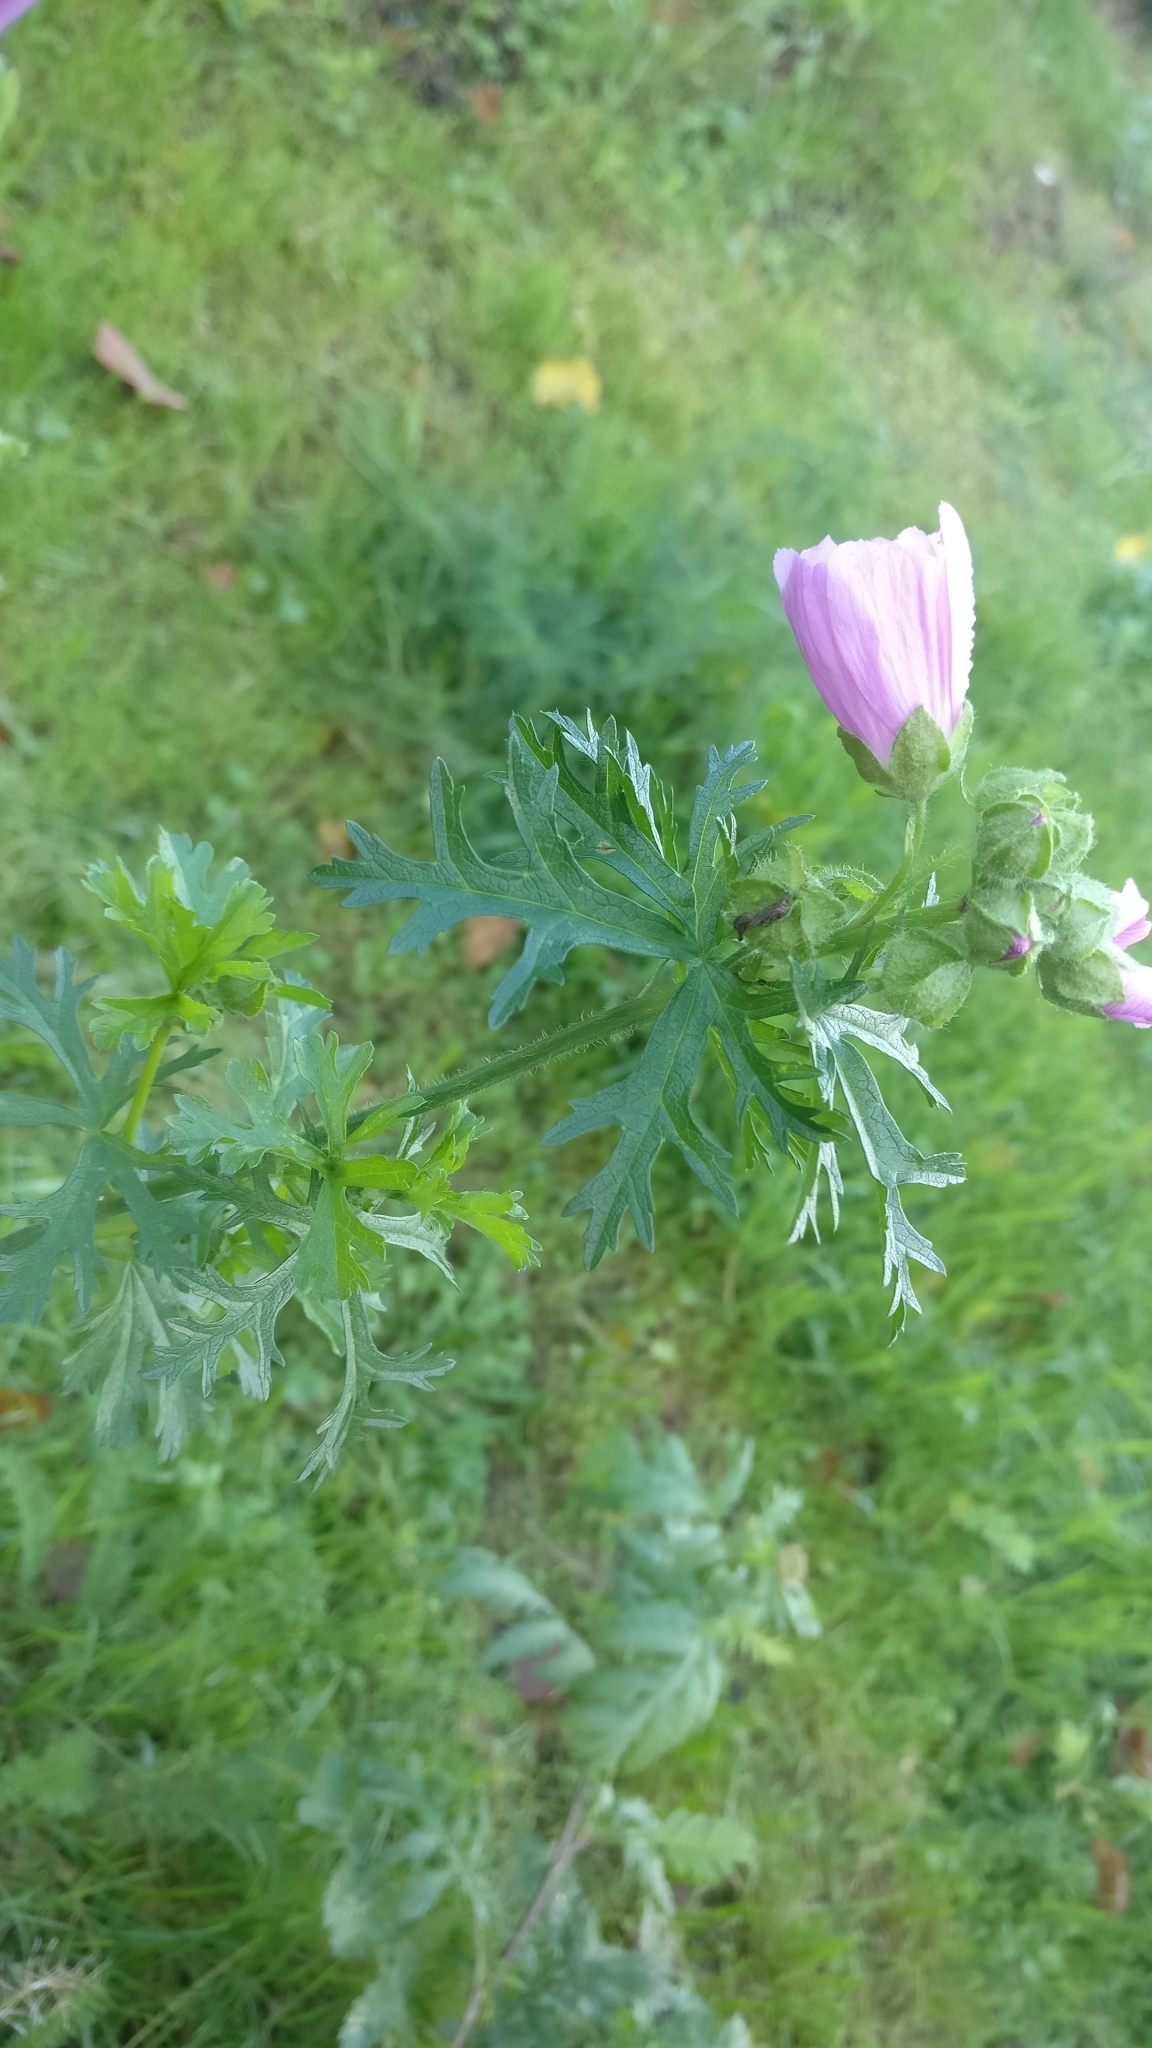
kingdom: Plantae
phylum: Tracheophyta
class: Magnoliopsida
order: Malvales
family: Malvaceae
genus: Malva
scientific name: Malva moschata
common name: Musk mallow
